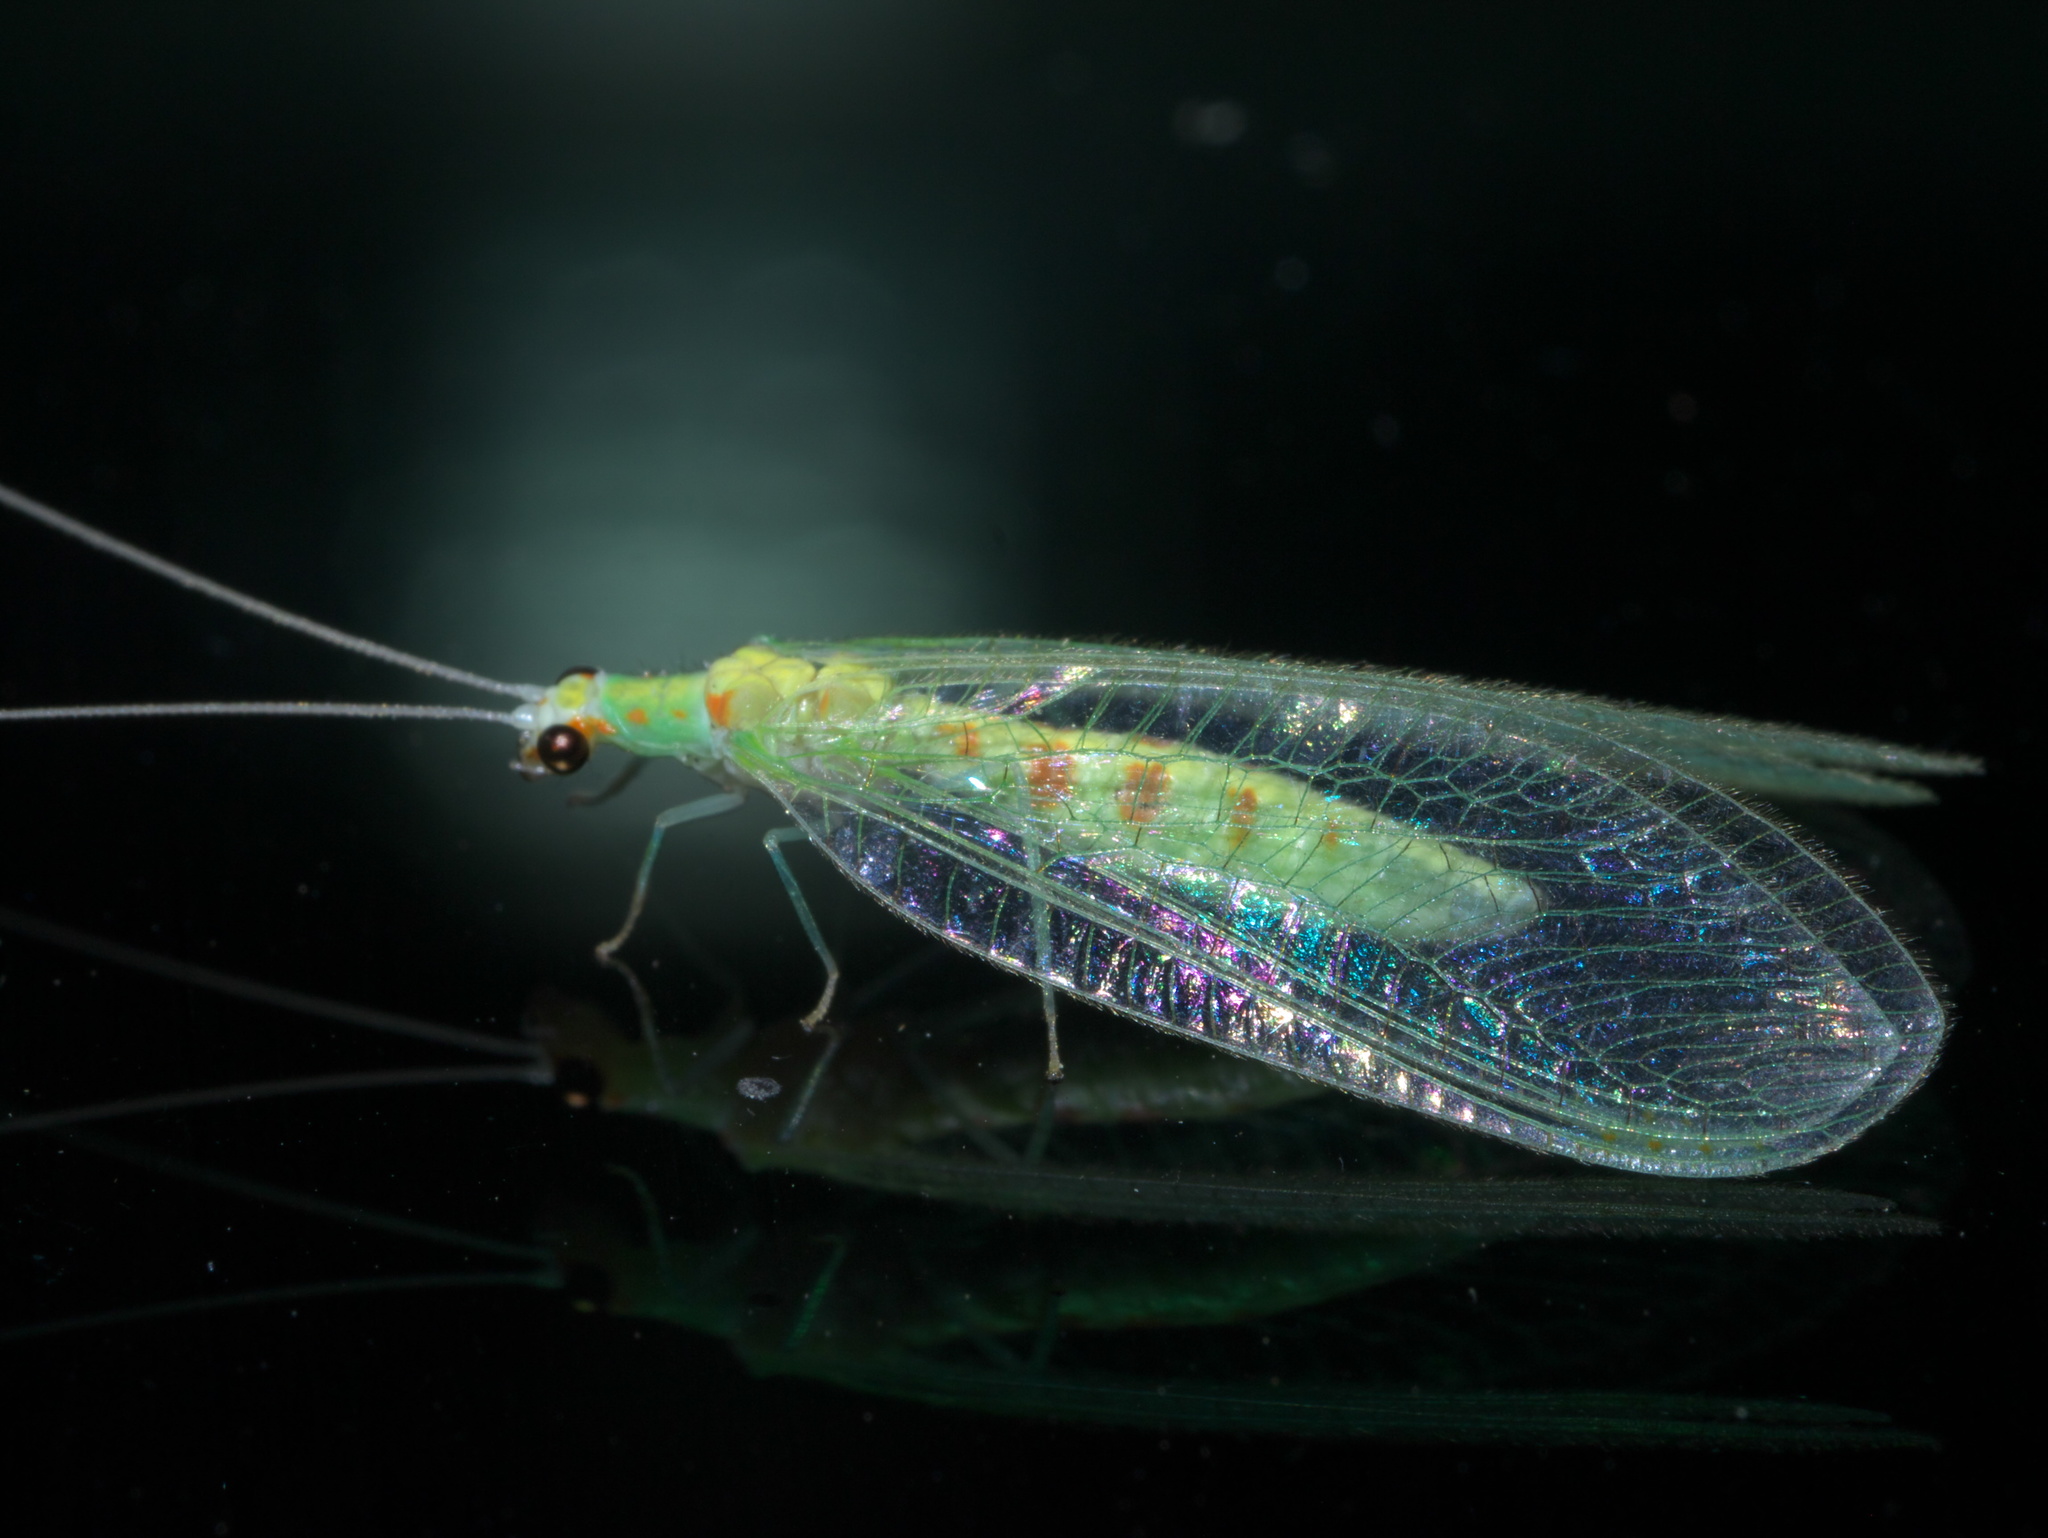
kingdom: Animalia
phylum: Arthropoda
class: Insecta
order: Neuroptera
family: Chrysopidae
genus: Chrysopa
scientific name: Chrysopa quadripunctata
